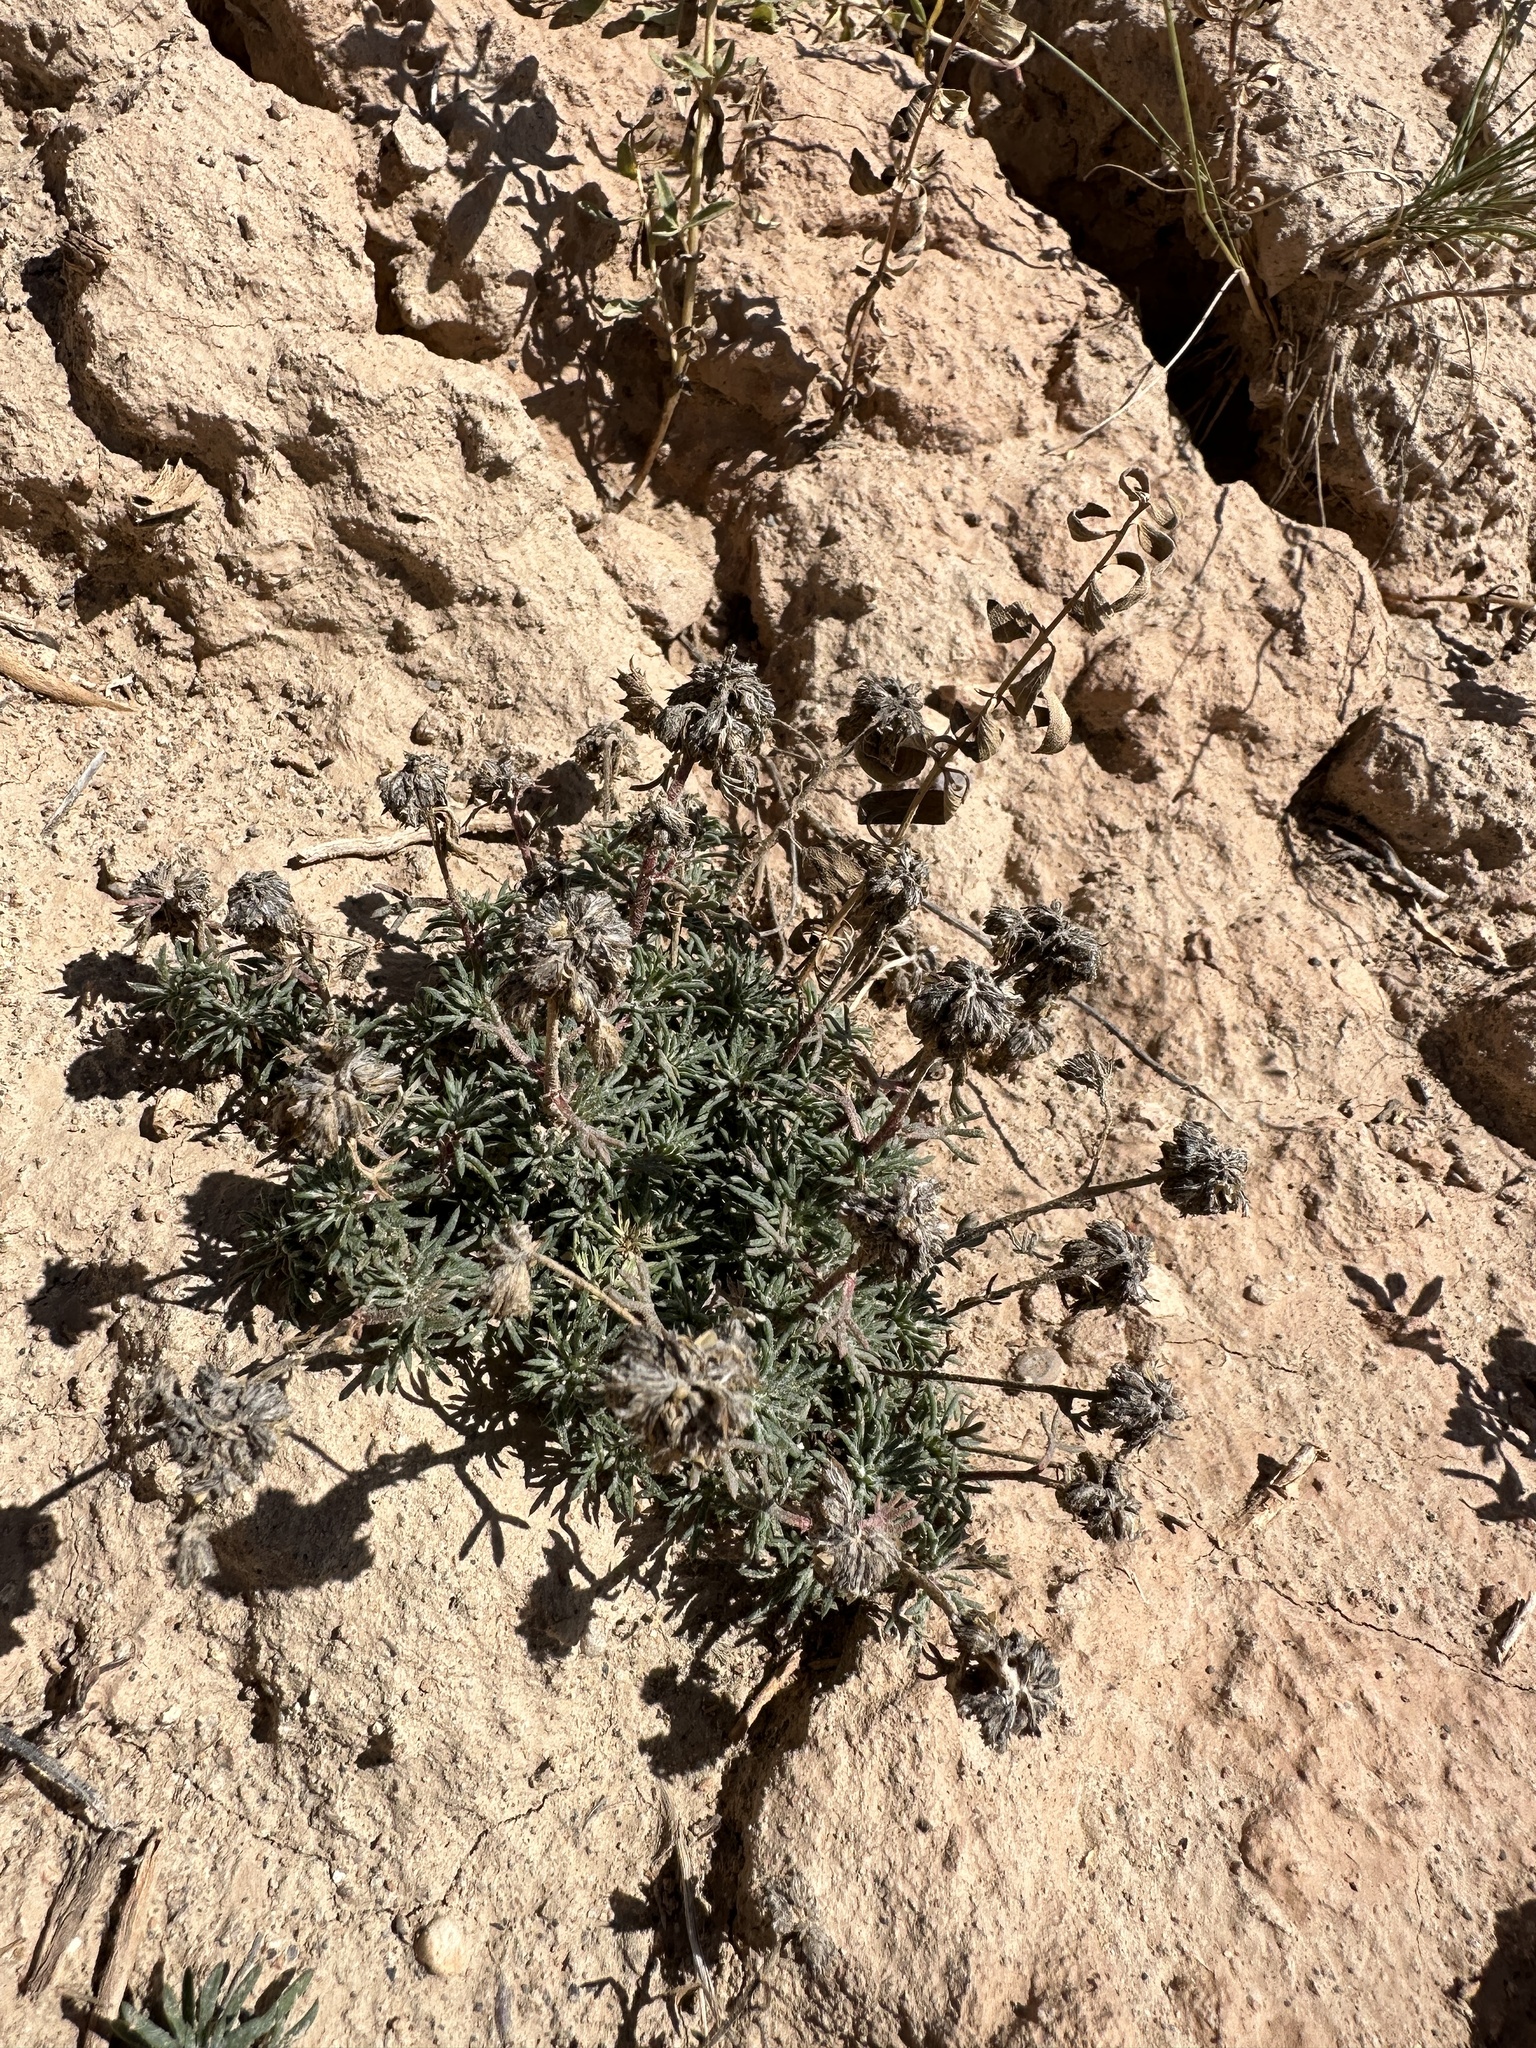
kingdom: Plantae
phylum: Tracheophyta
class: Magnoliopsida
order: Ericales
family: Polemoniaceae
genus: Ipomopsis
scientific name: Ipomopsis congesta
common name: Ball-head gilia
